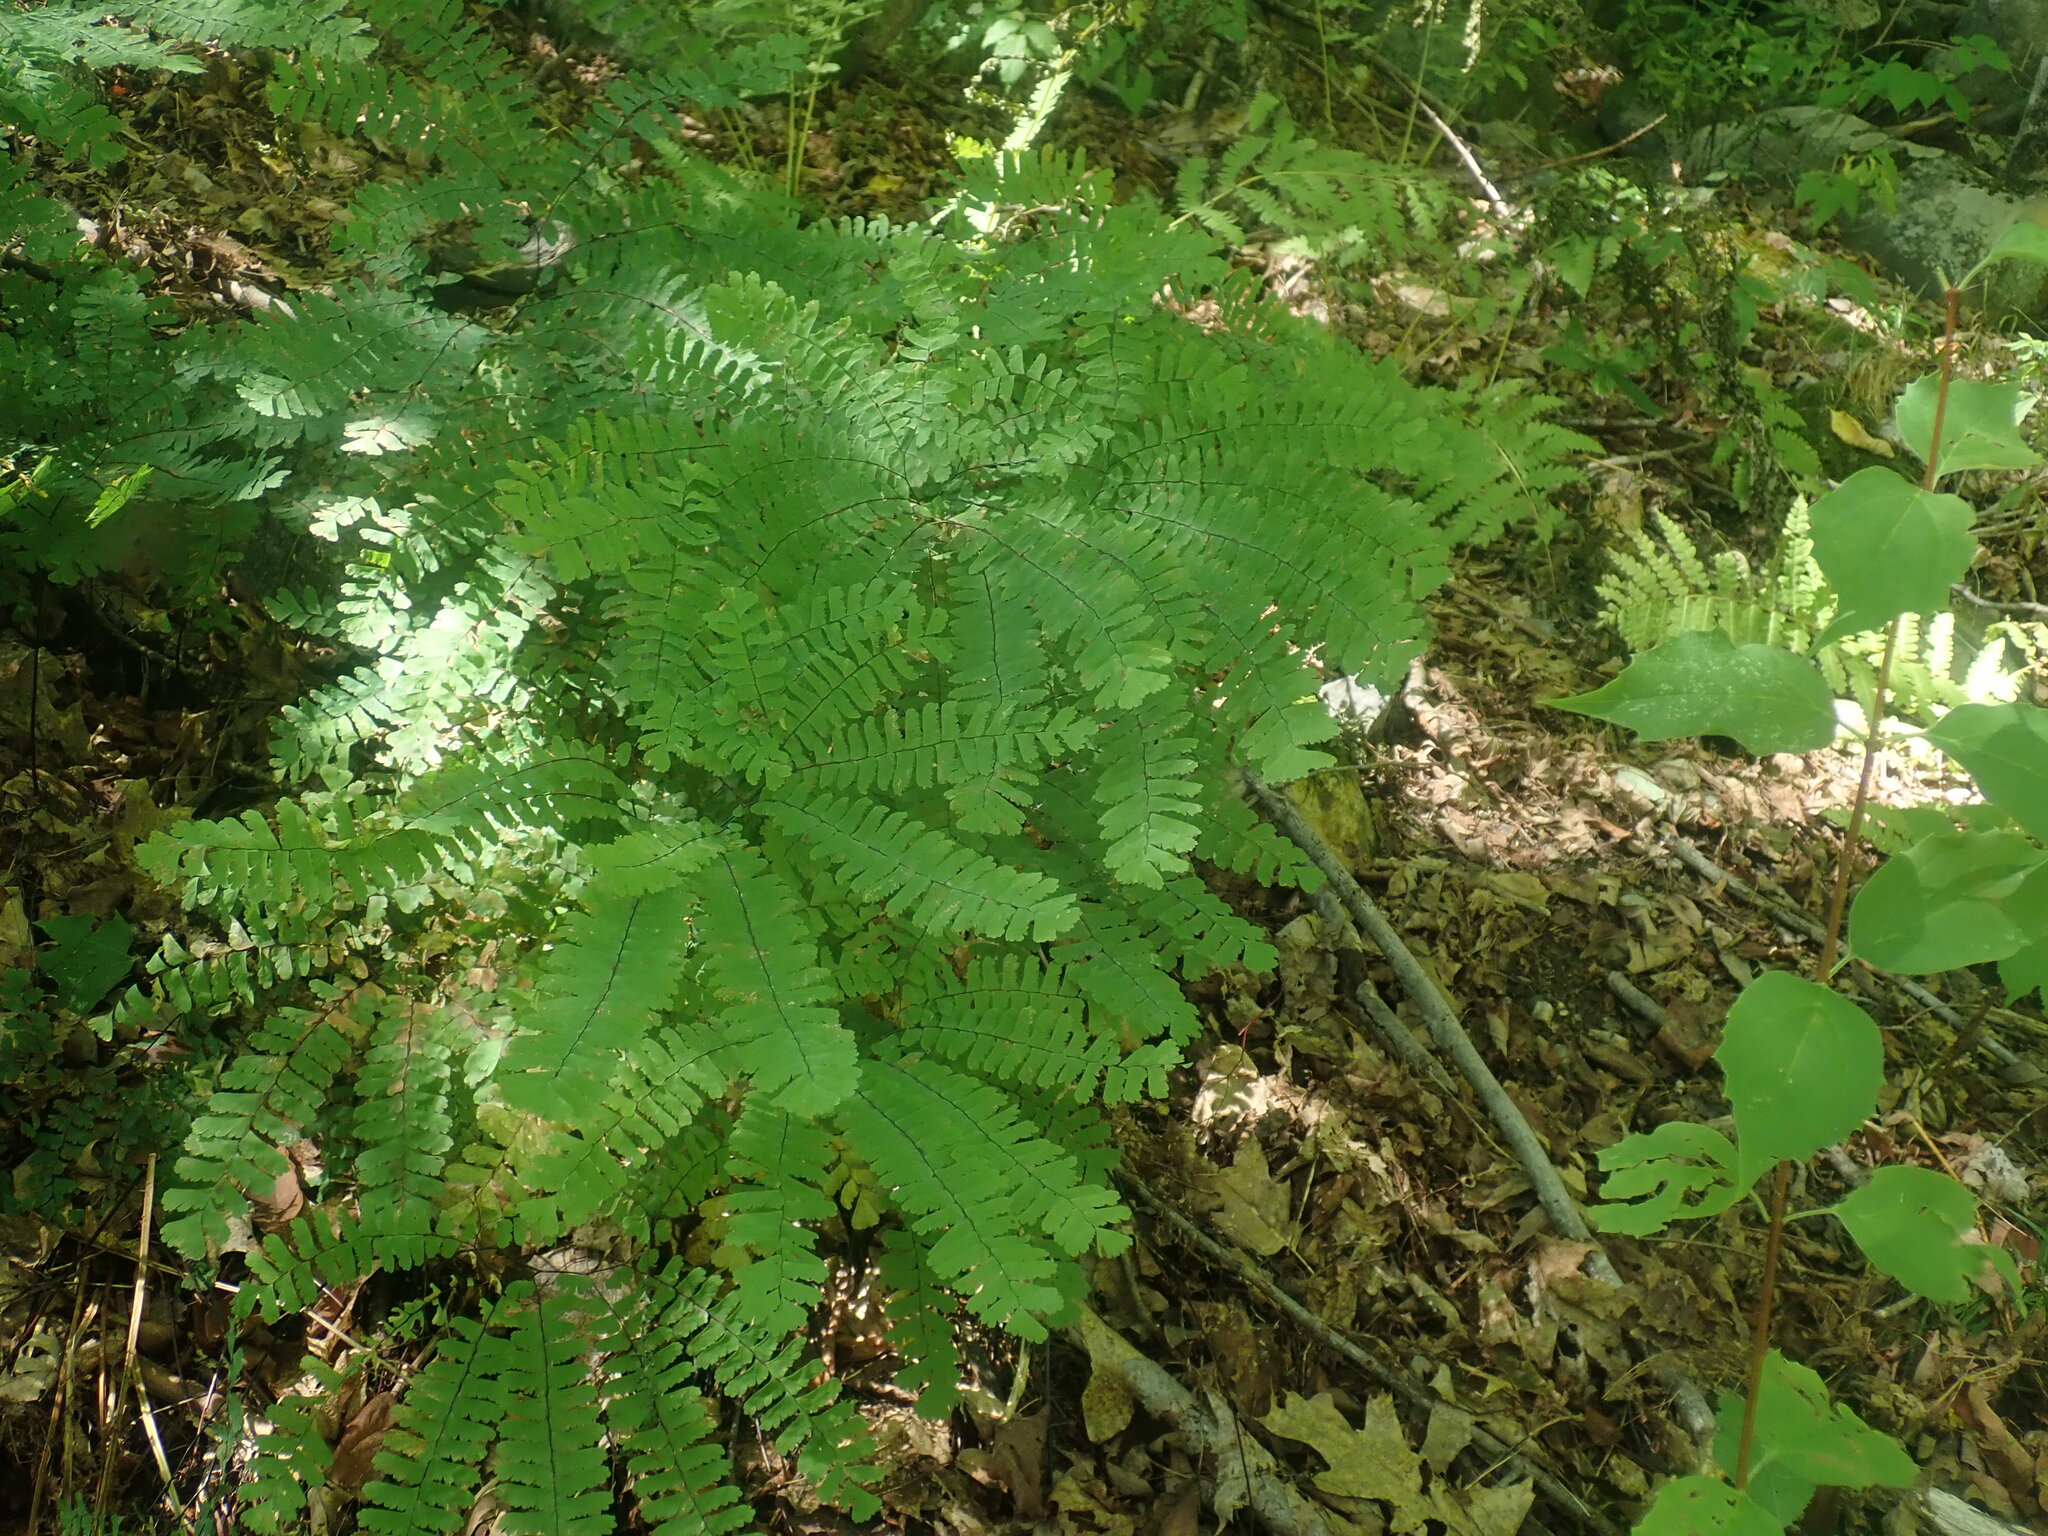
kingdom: Plantae
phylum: Tracheophyta
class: Polypodiopsida
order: Polypodiales
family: Pteridaceae
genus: Adiantum
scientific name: Adiantum pedatum
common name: Five-finger fern
